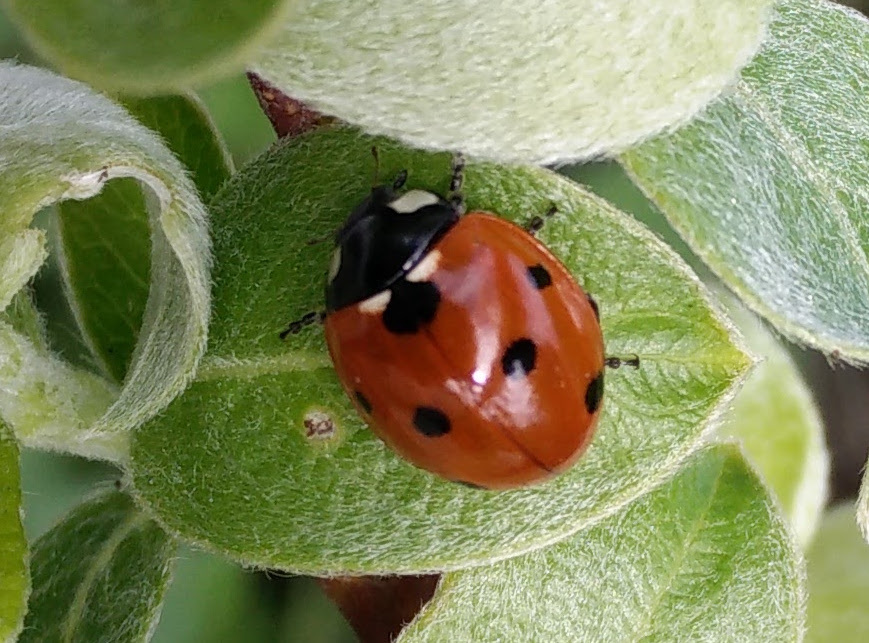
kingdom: Animalia
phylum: Arthropoda
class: Insecta
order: Coleoptera
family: Coccinellidae
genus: Coccinella
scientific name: Coccinella septempunctata
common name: Sevenspotted lady beetle
